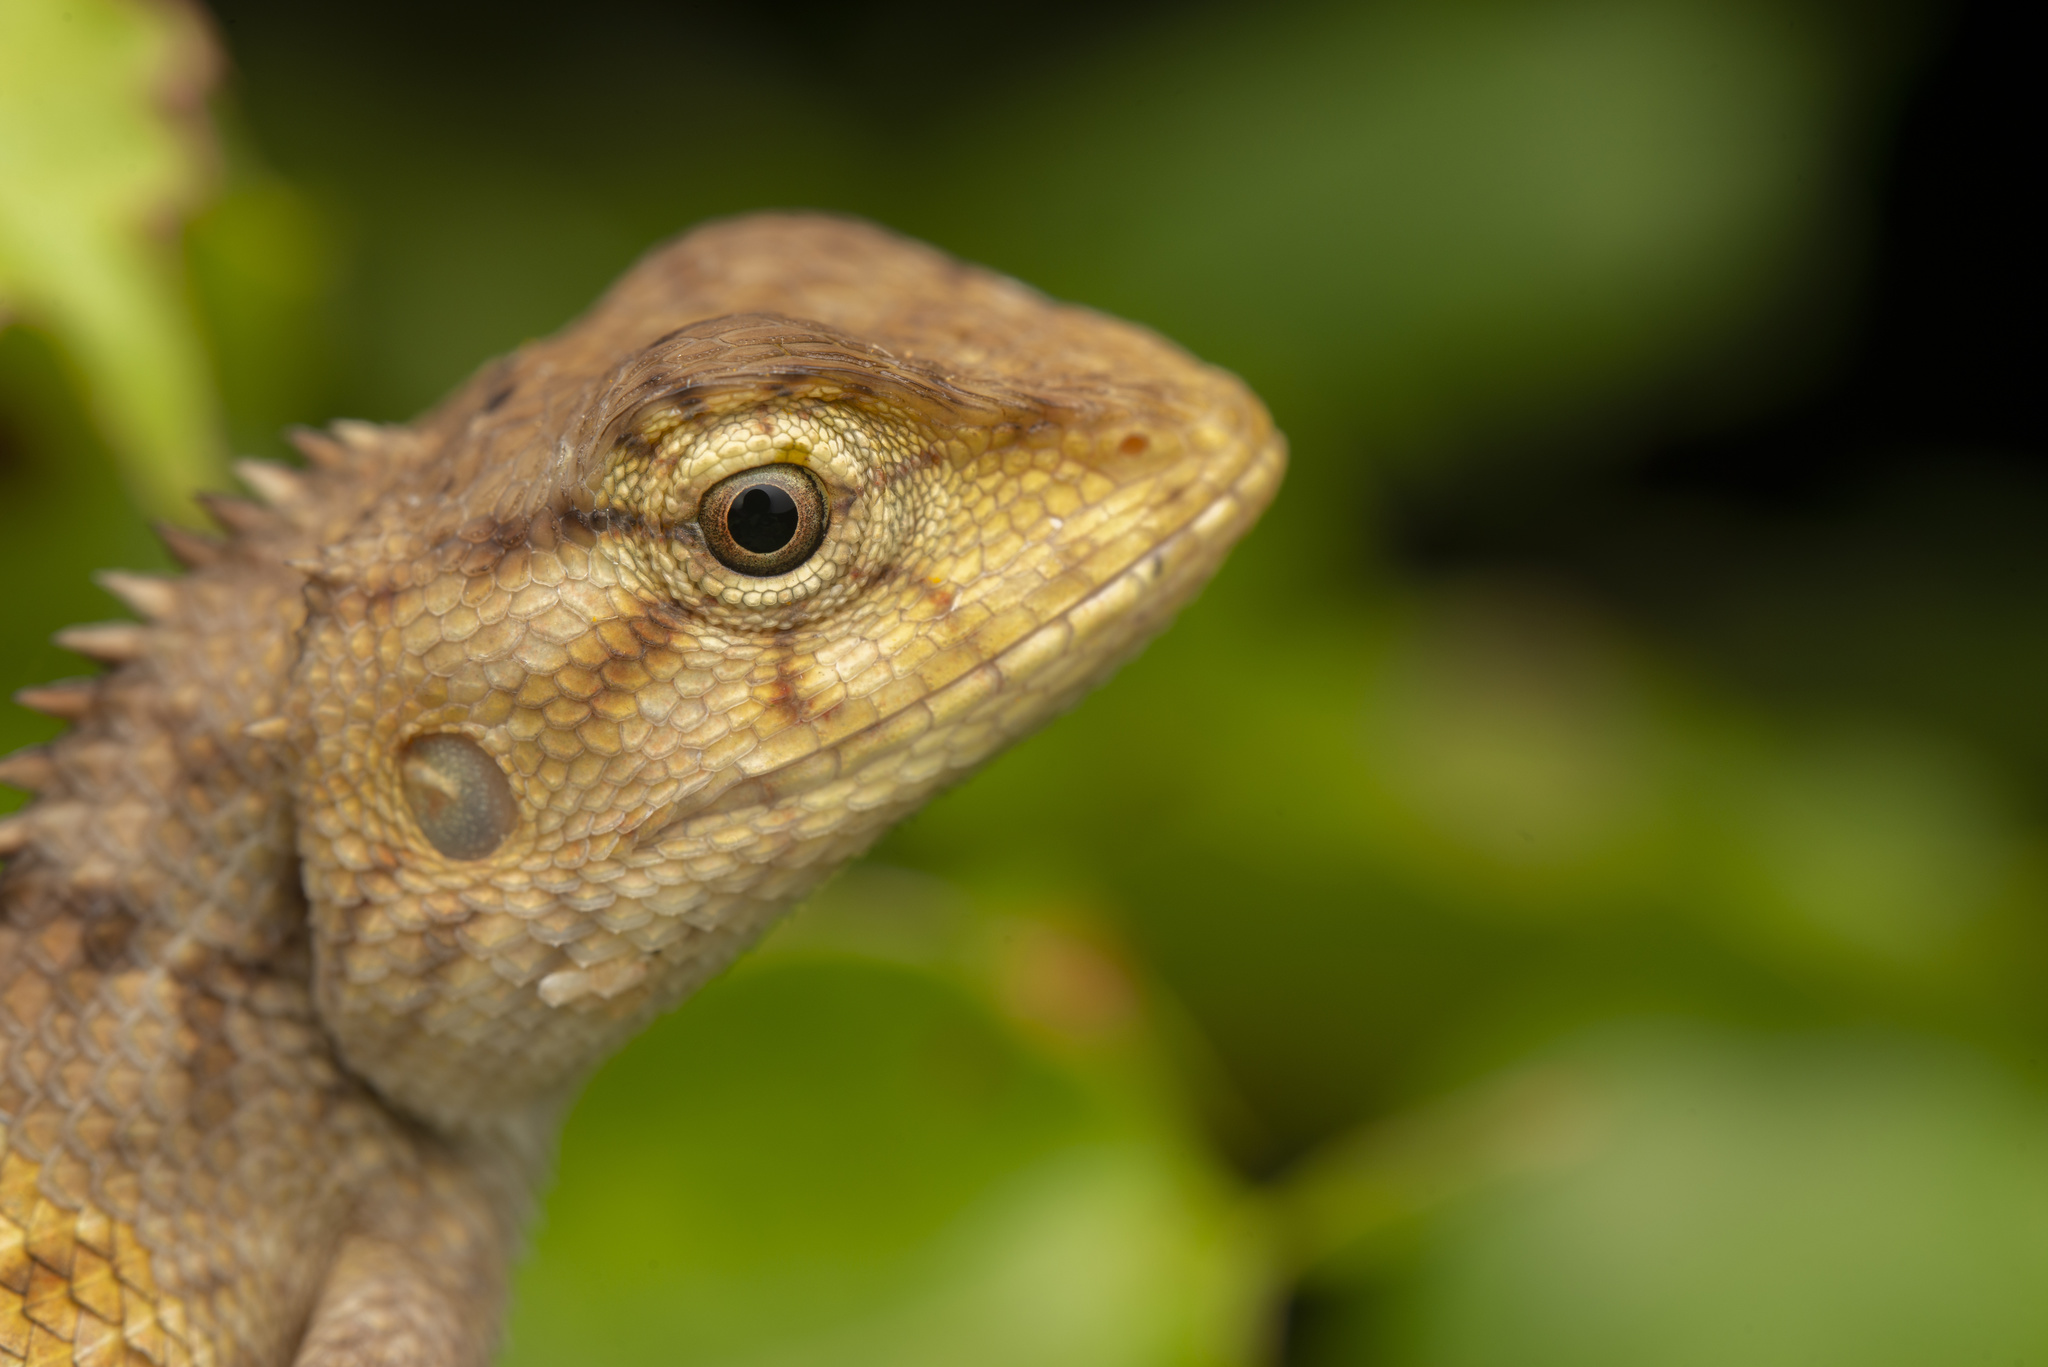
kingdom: Animalia
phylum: Chordata
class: Squamata
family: Agamidae
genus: Calotes
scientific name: Calotes versicolor
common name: Oriental garden lizard
